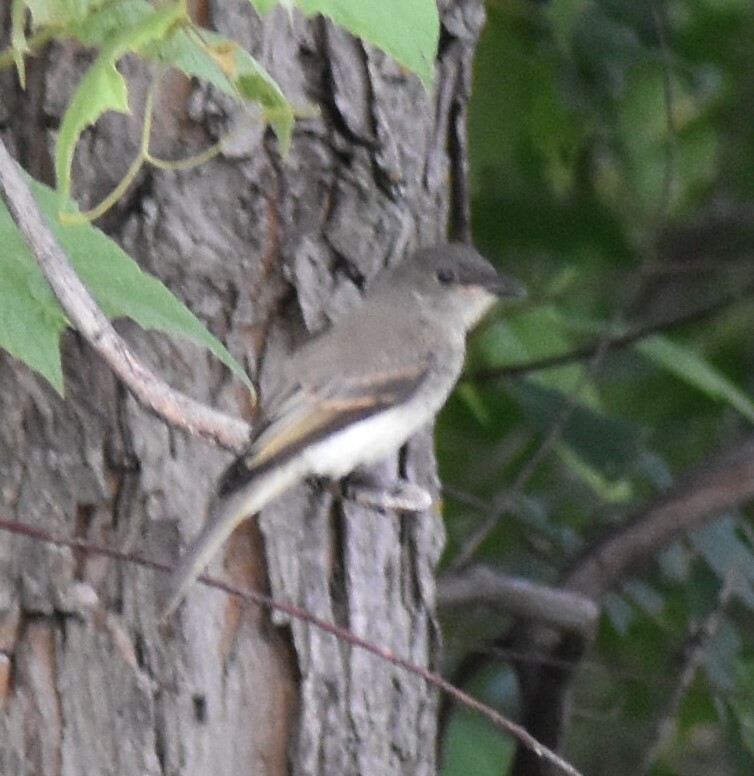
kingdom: Animalia
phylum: Chordata
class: Aves
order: Passeriformes
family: Tyrannidae
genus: Sayornis
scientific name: Sayornis phoebe
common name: Eastern phoebe
